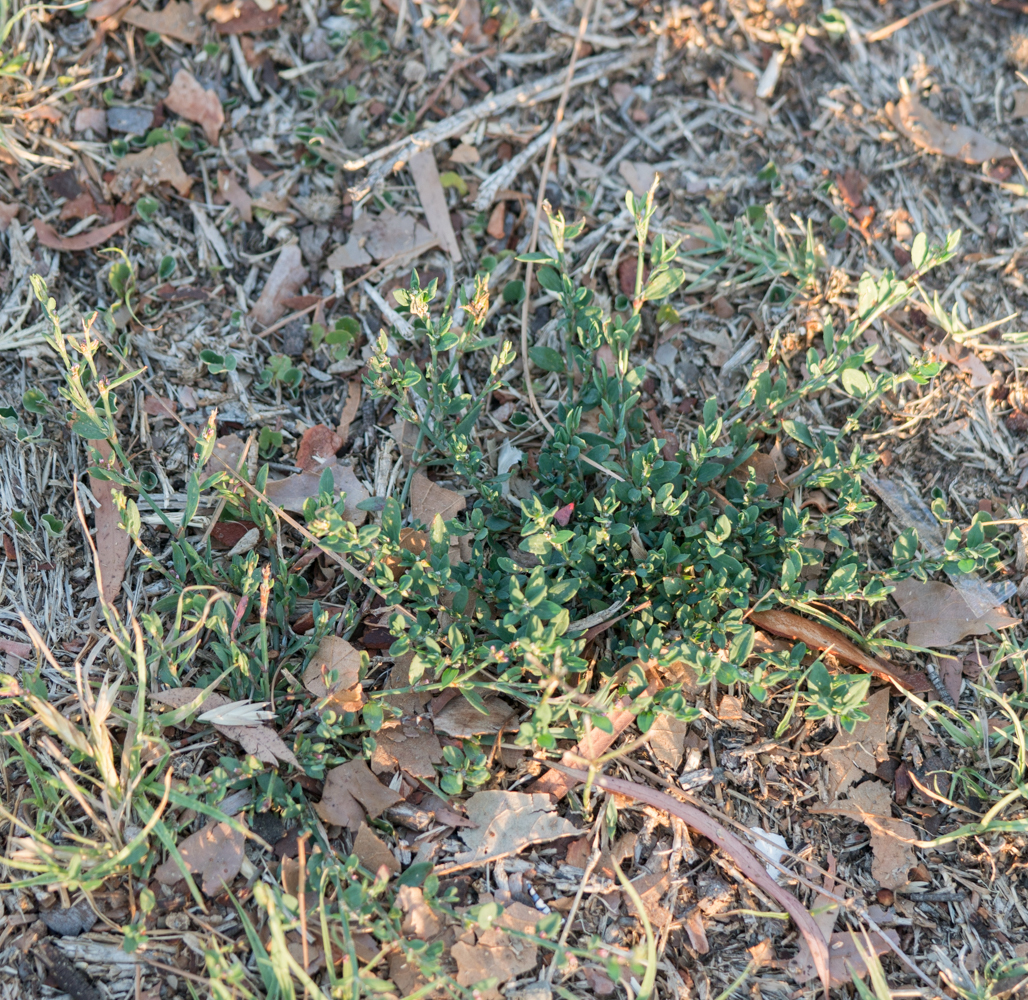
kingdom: Plantae
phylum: Tracheophyta
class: Magnoliopsida
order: Caryophyllales
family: Polygonaceae
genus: Polygonum
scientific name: Polygonum aviculare
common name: Prostrate knotweed
